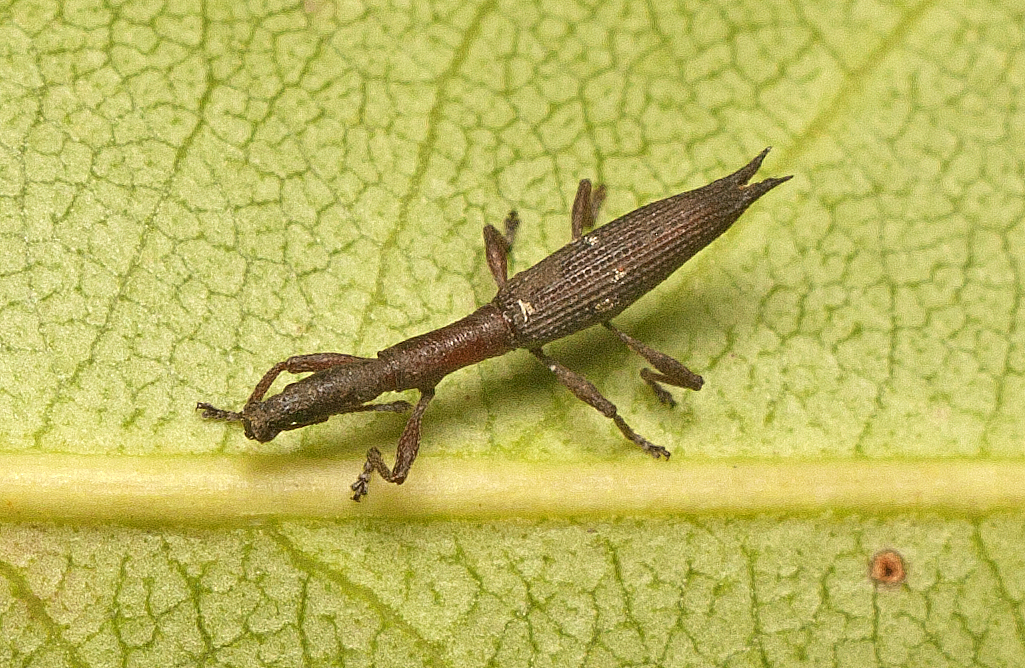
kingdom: Animalia
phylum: Arthropoda
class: Insecta
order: Coleoptera
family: Curculionidae
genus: Rhadinosomus
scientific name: Rhadinosomus lacordairei
